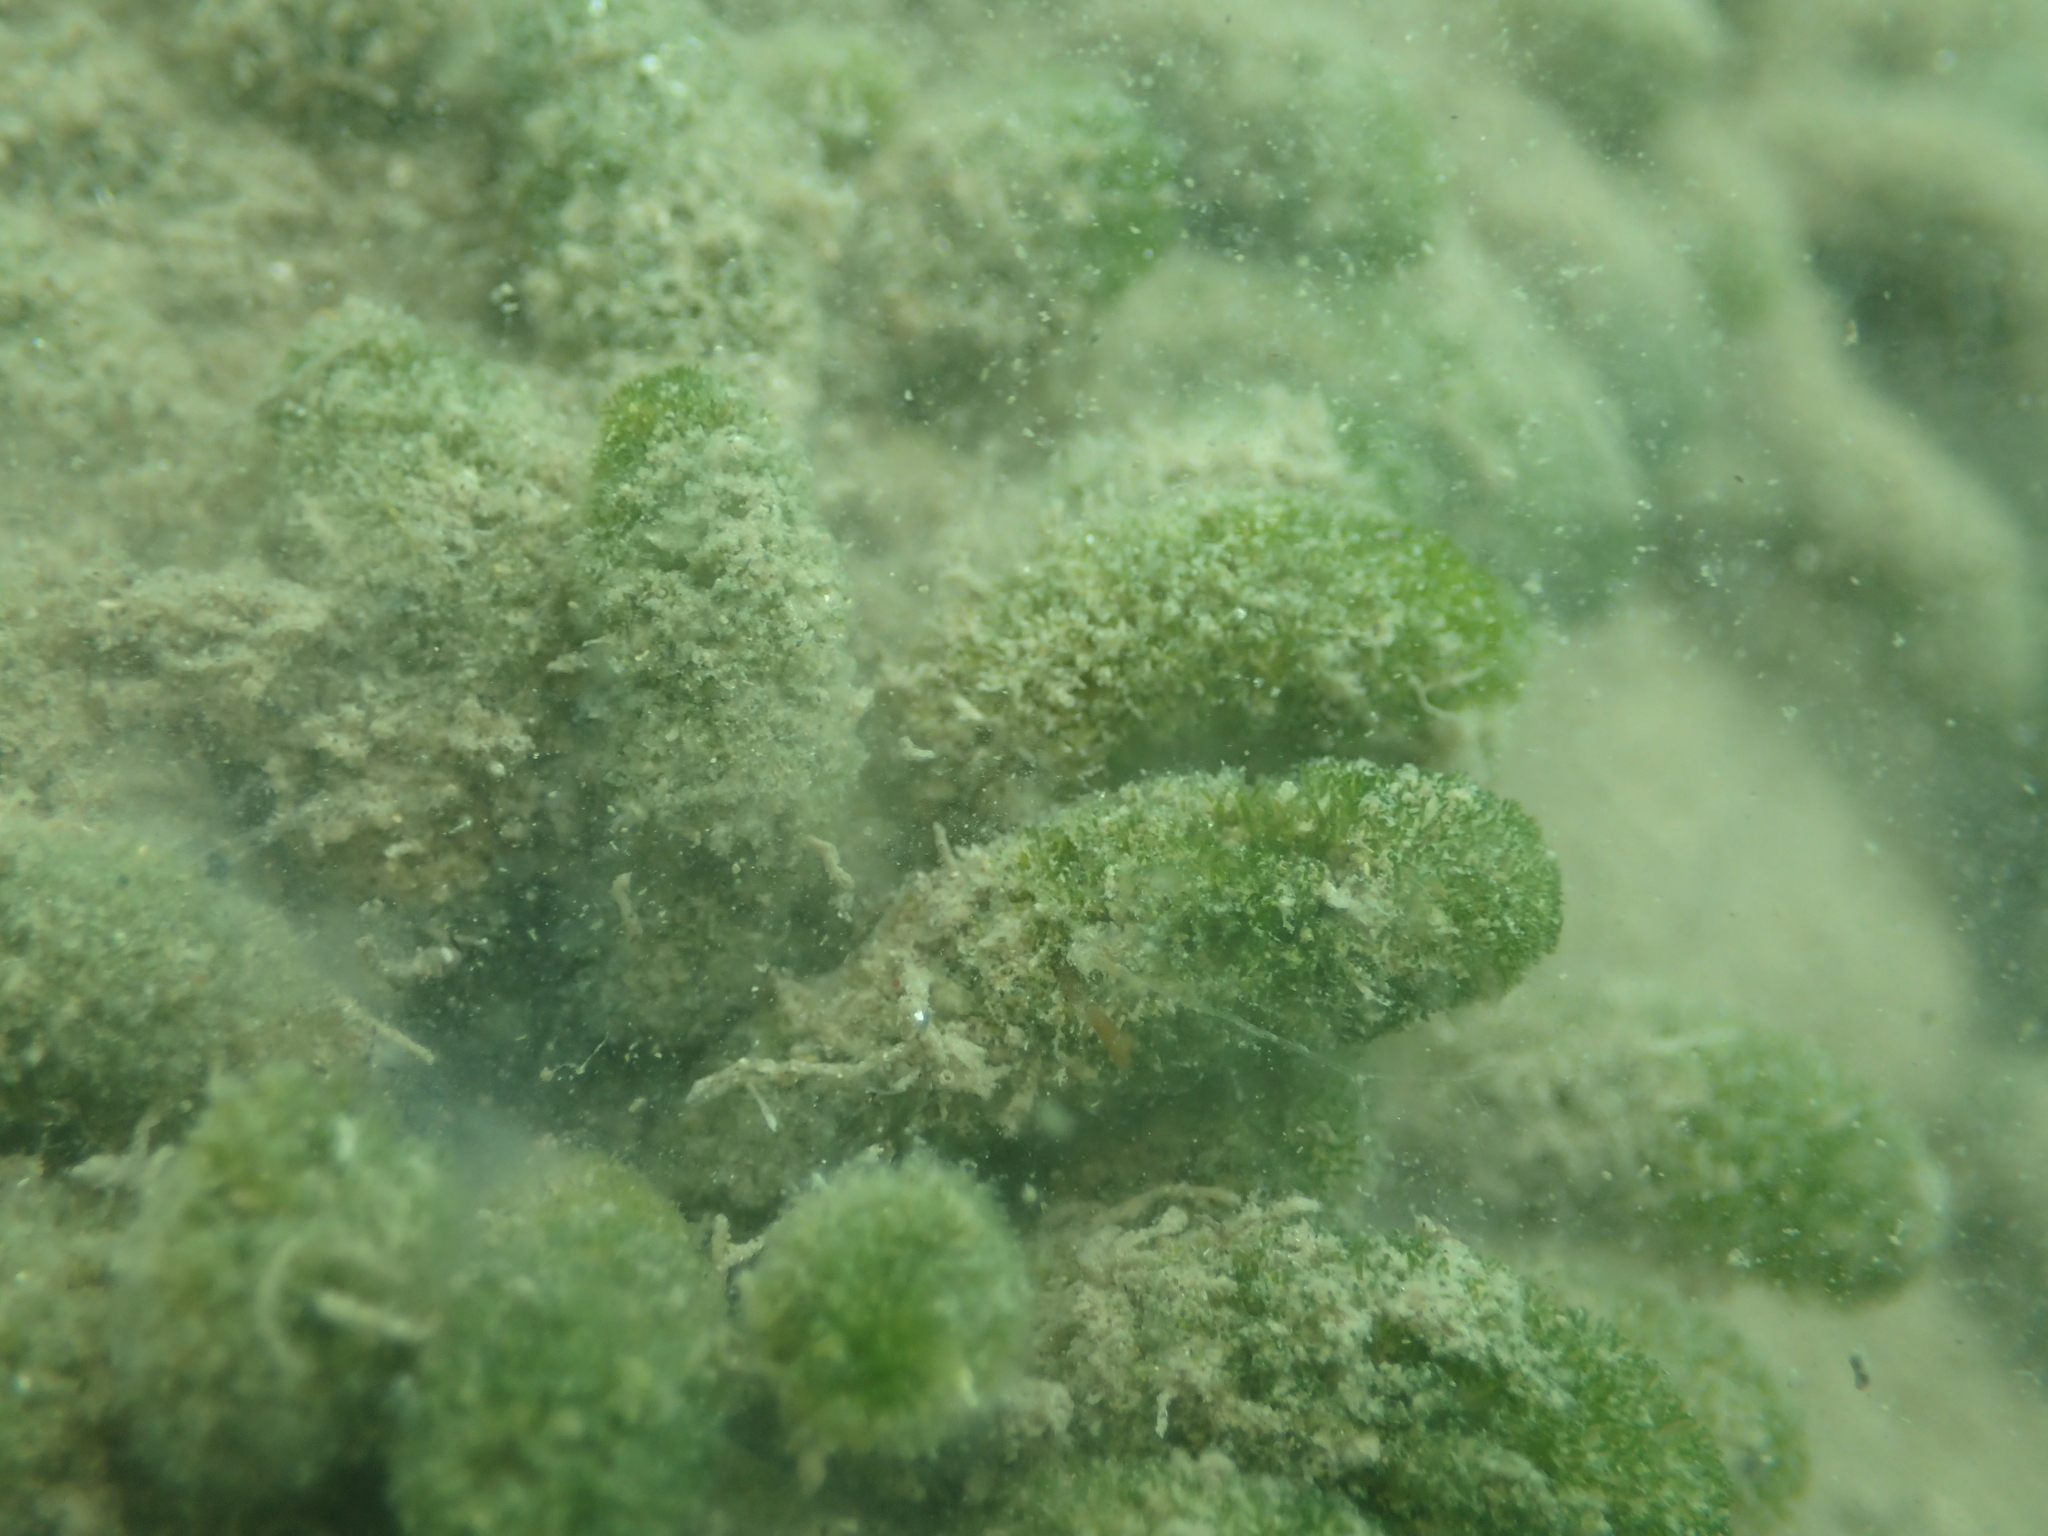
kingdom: Plantae
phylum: Chlorophyta
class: Ulvophyceae
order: Dasycladales
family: Dasycladaceae
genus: Dasycladus
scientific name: Dasycladus vermicularis
